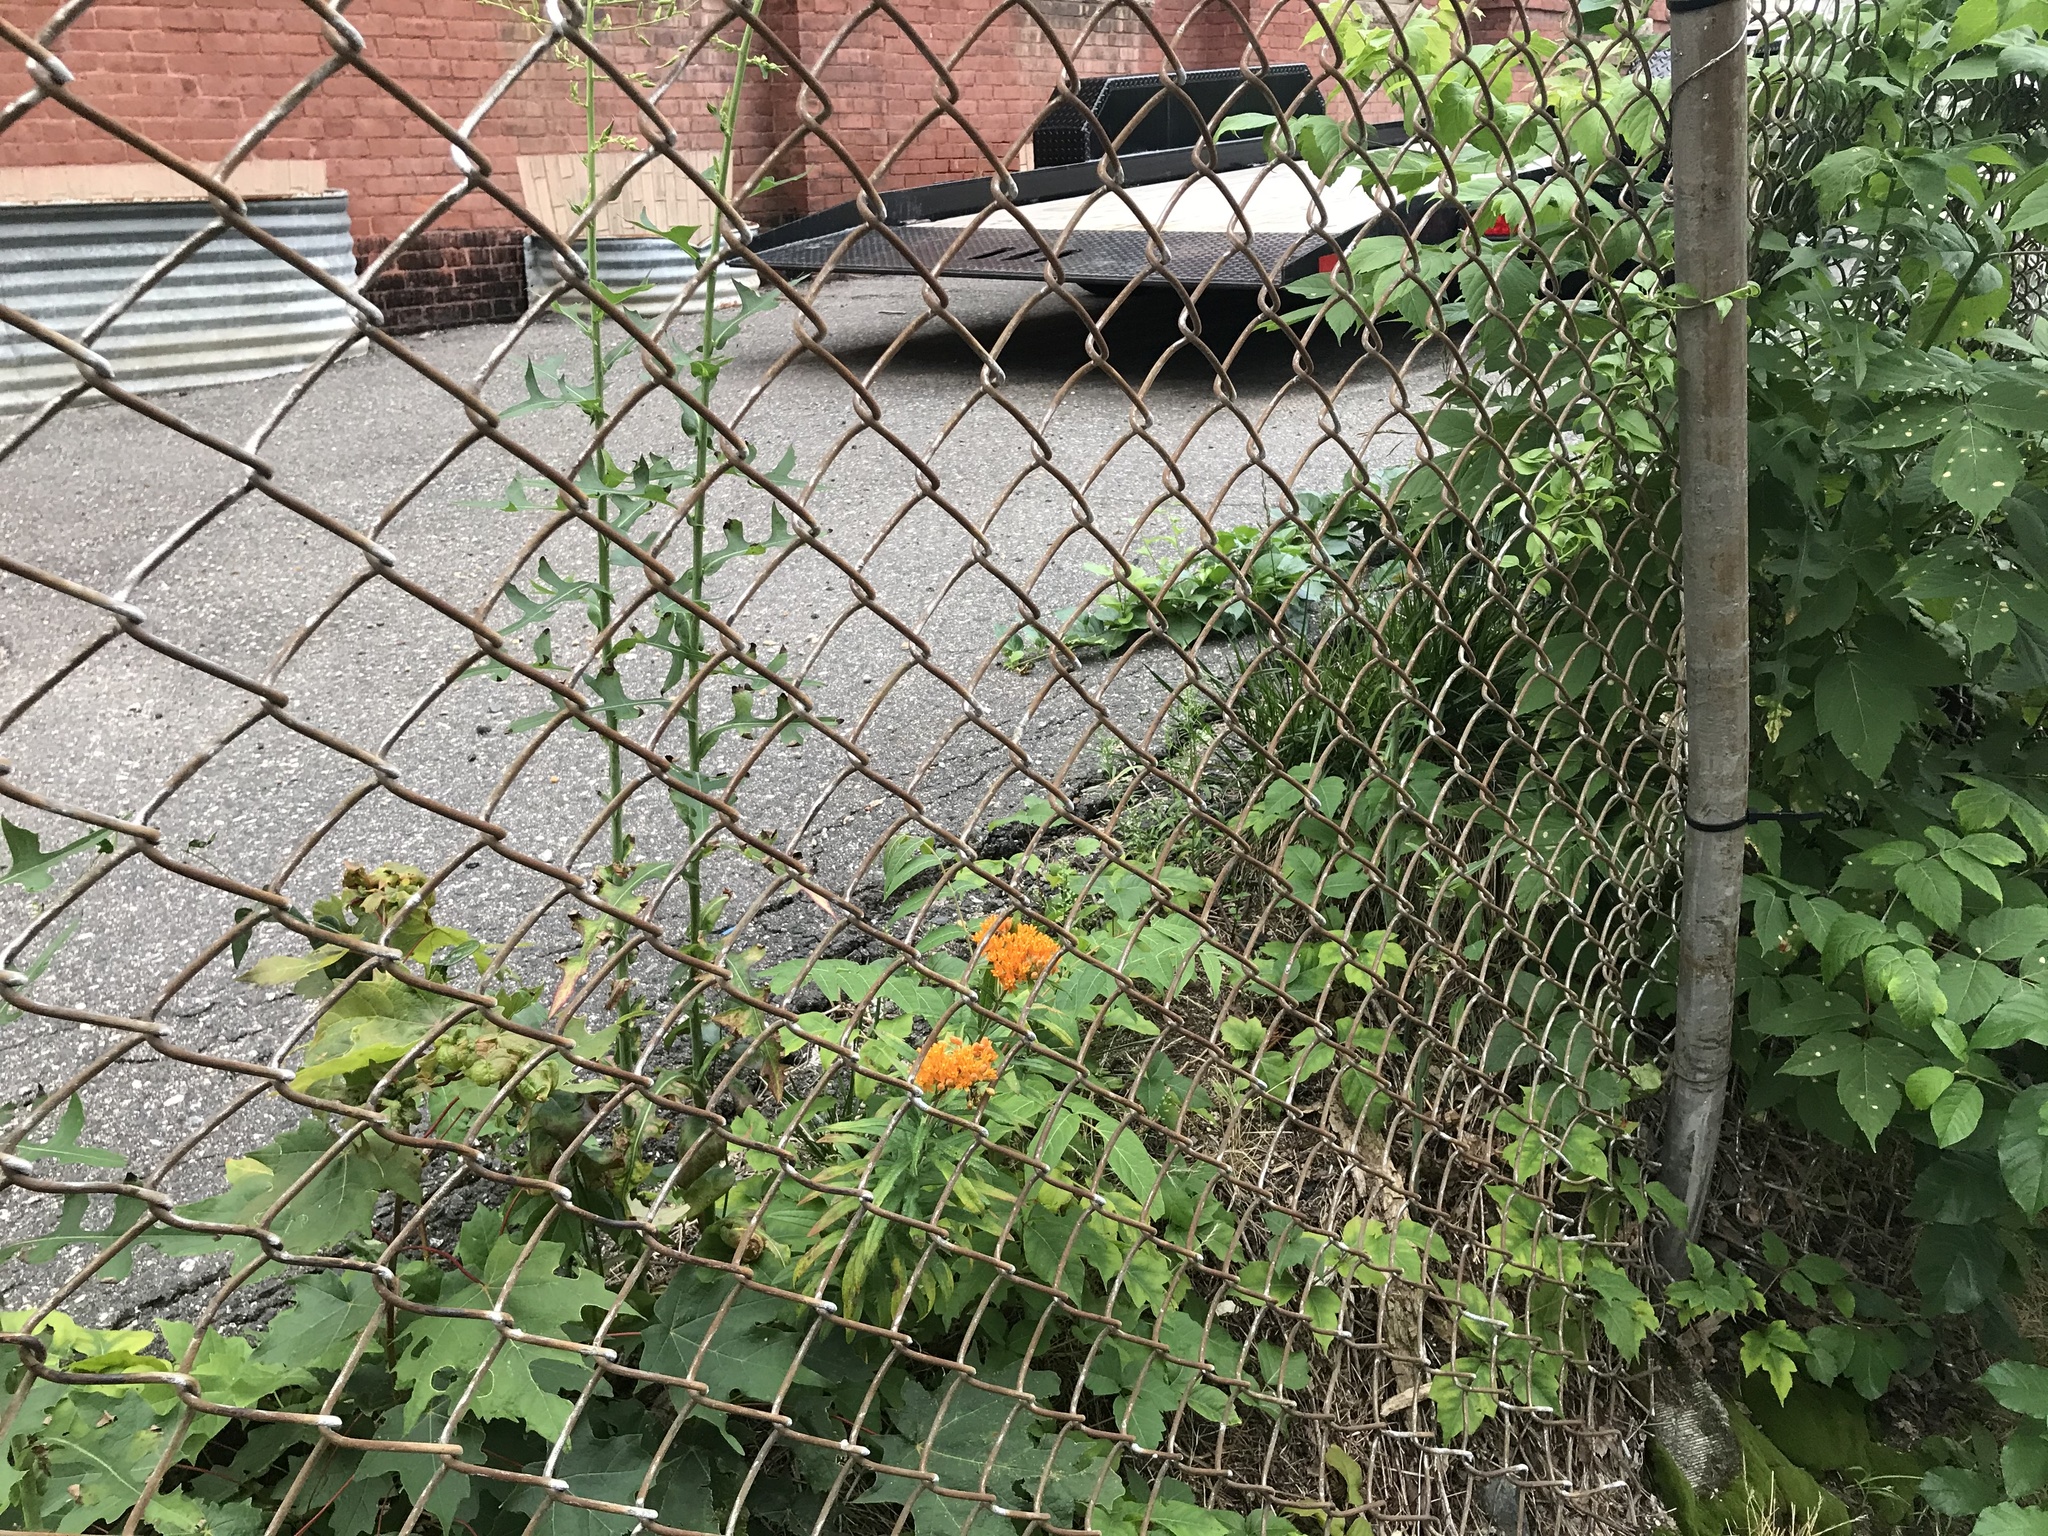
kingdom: Plantae
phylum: Tracheophyta
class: Magnoliopsida
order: Gentianales
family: Apocynaceae
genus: Asclepias
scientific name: Asclepias tuberosa
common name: Butterfly milkweed
